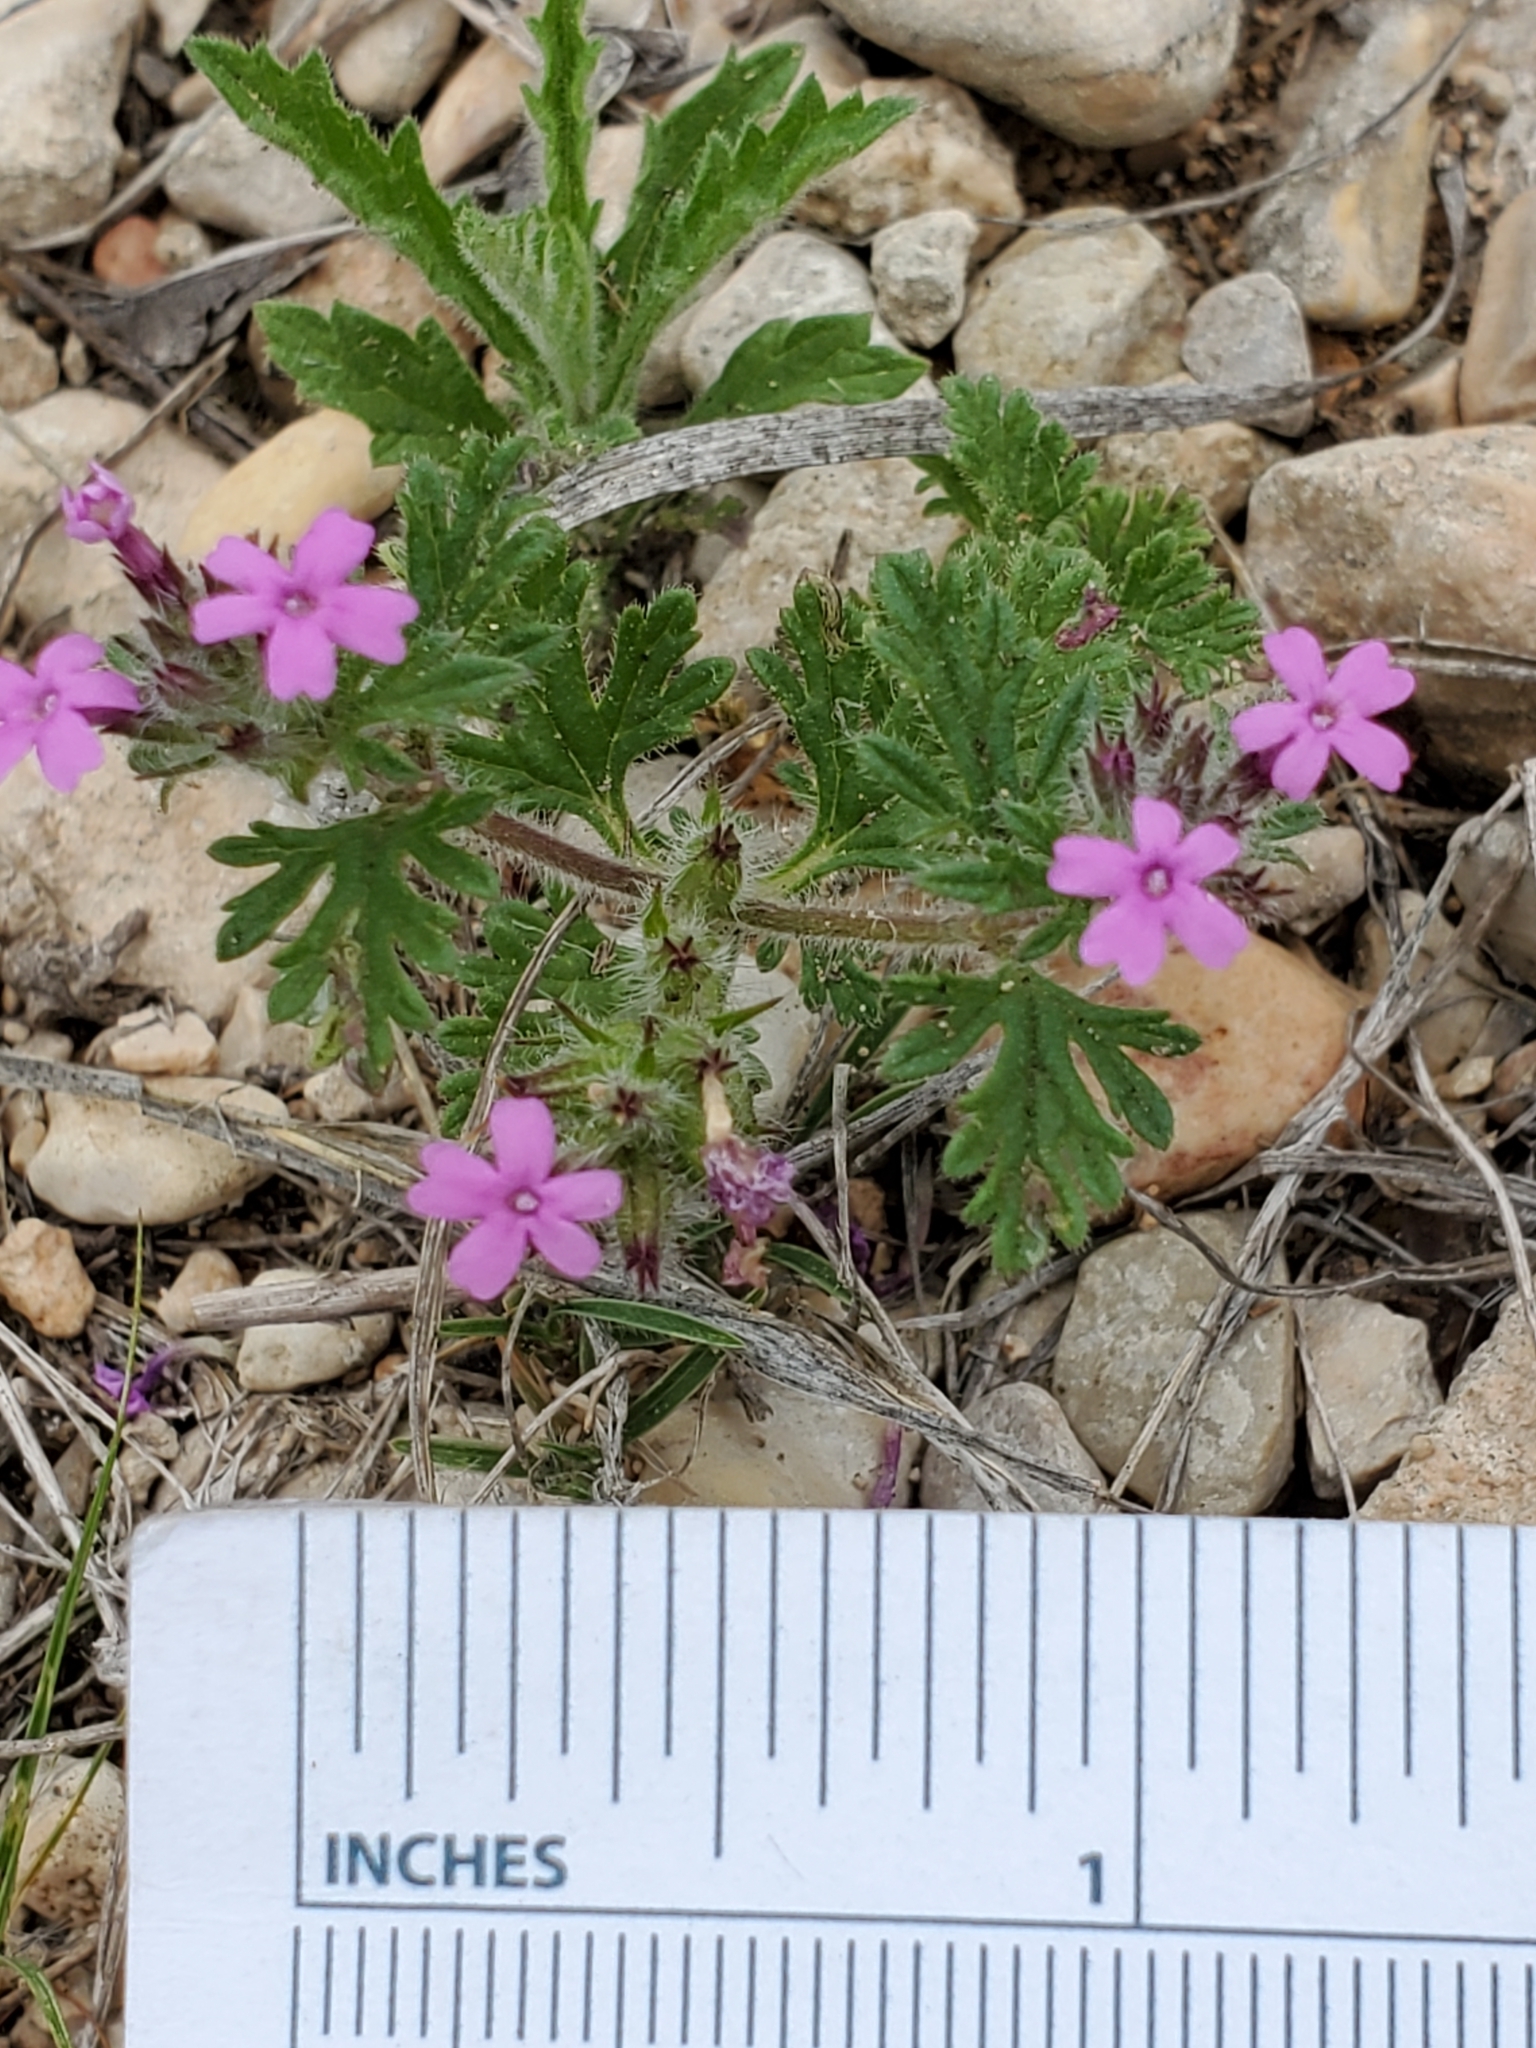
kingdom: Plantae
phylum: Tracheophyta
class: Magnoliopsida
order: Lamiales
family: Verbenaceae
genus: Verbena
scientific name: Verbena pumila
